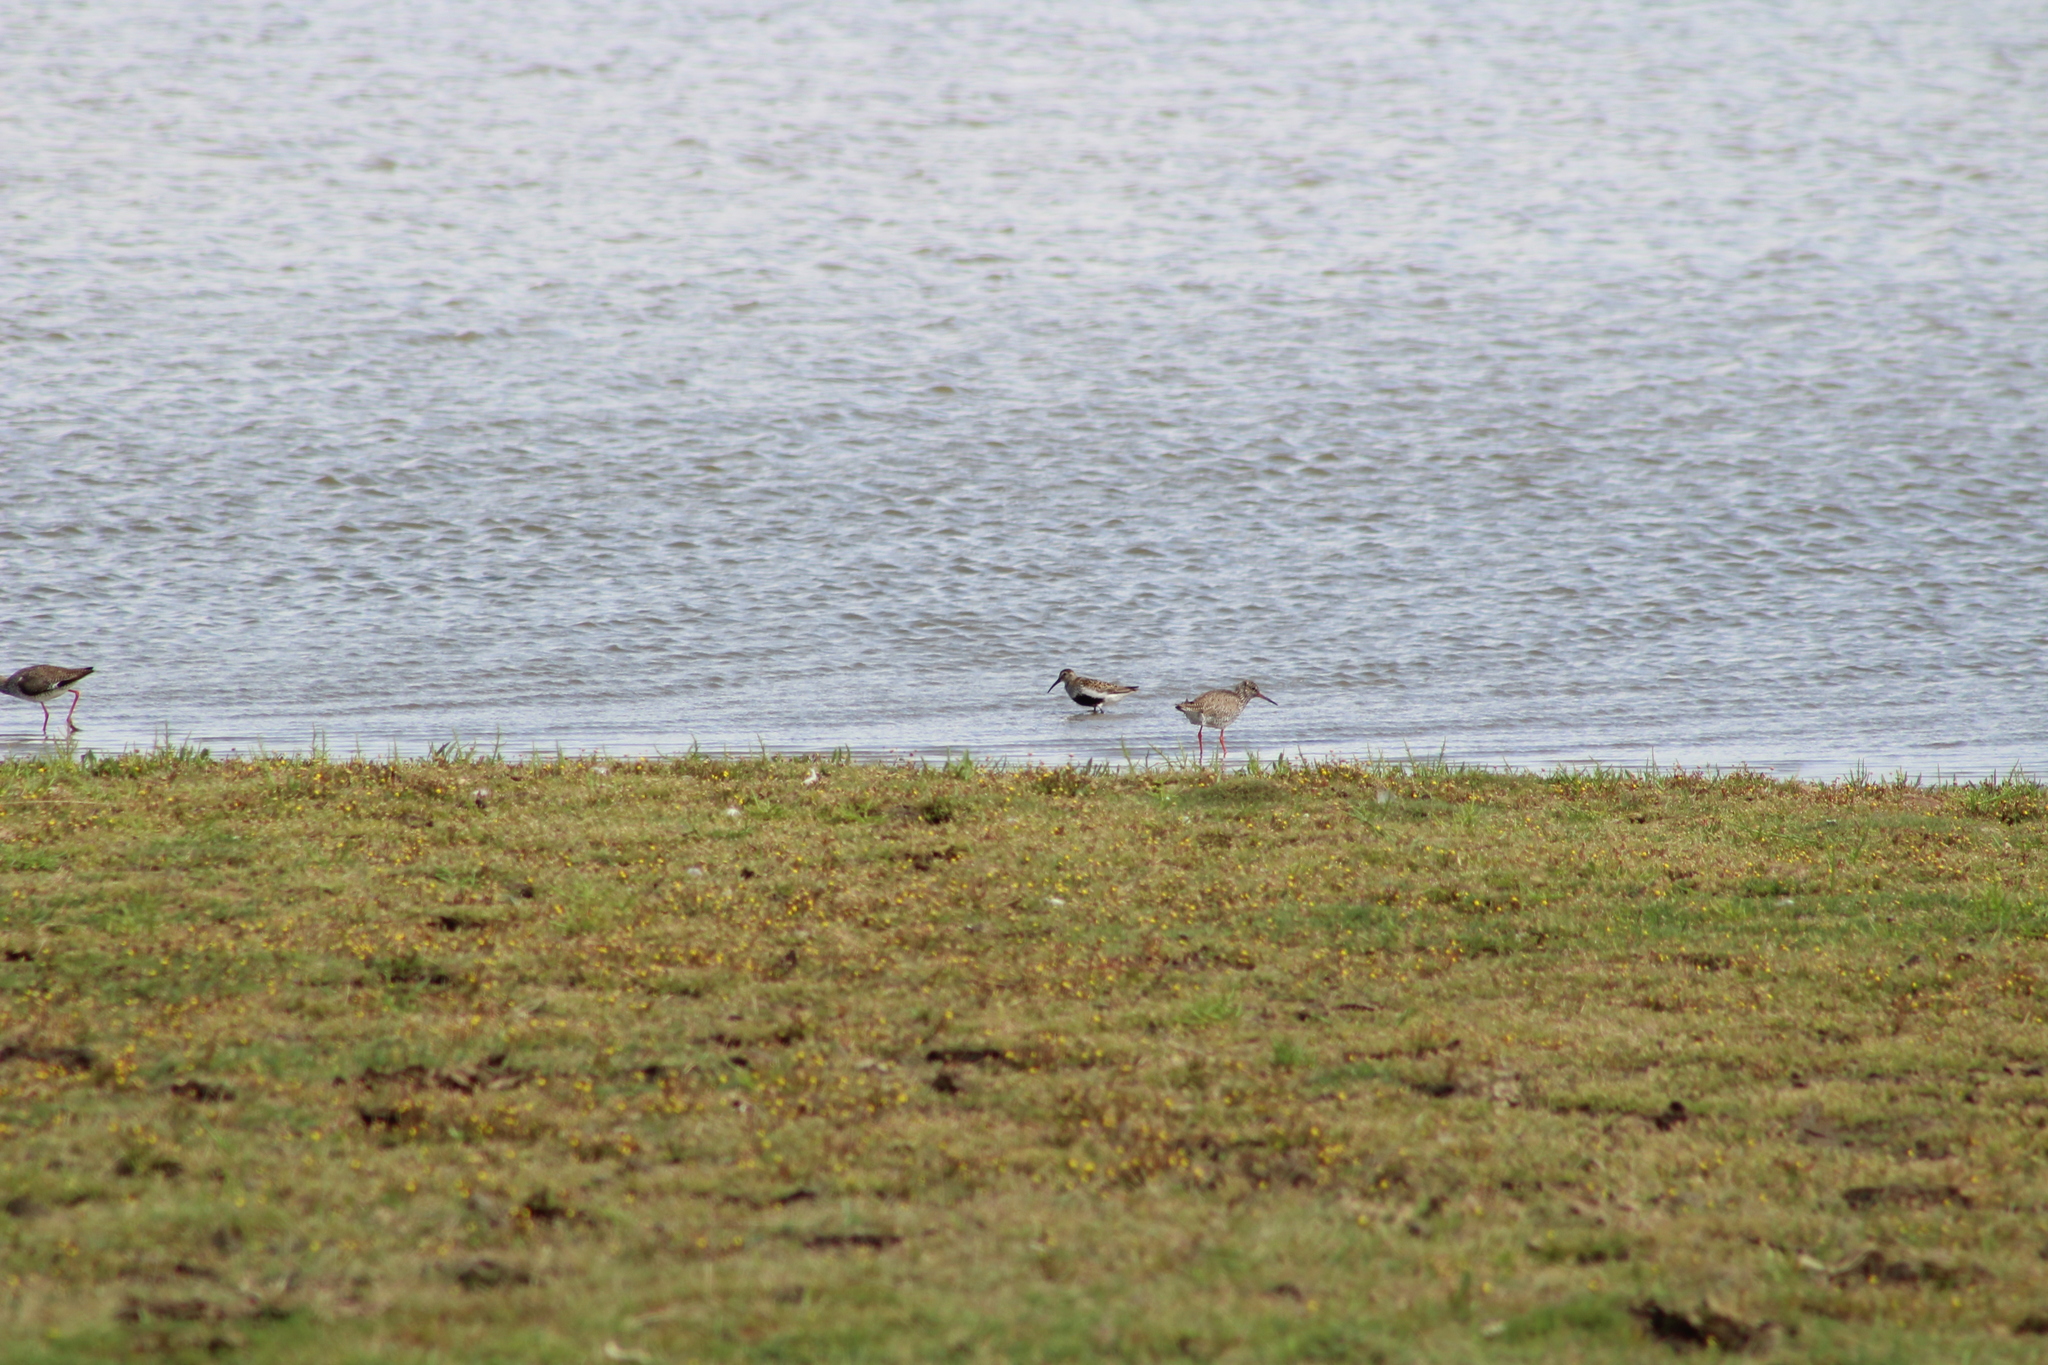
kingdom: Animalia
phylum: Chordata
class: Aves
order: Charadriiformes
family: Scolopacidae
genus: Calidris
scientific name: Calidris alpina
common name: Dunlin
